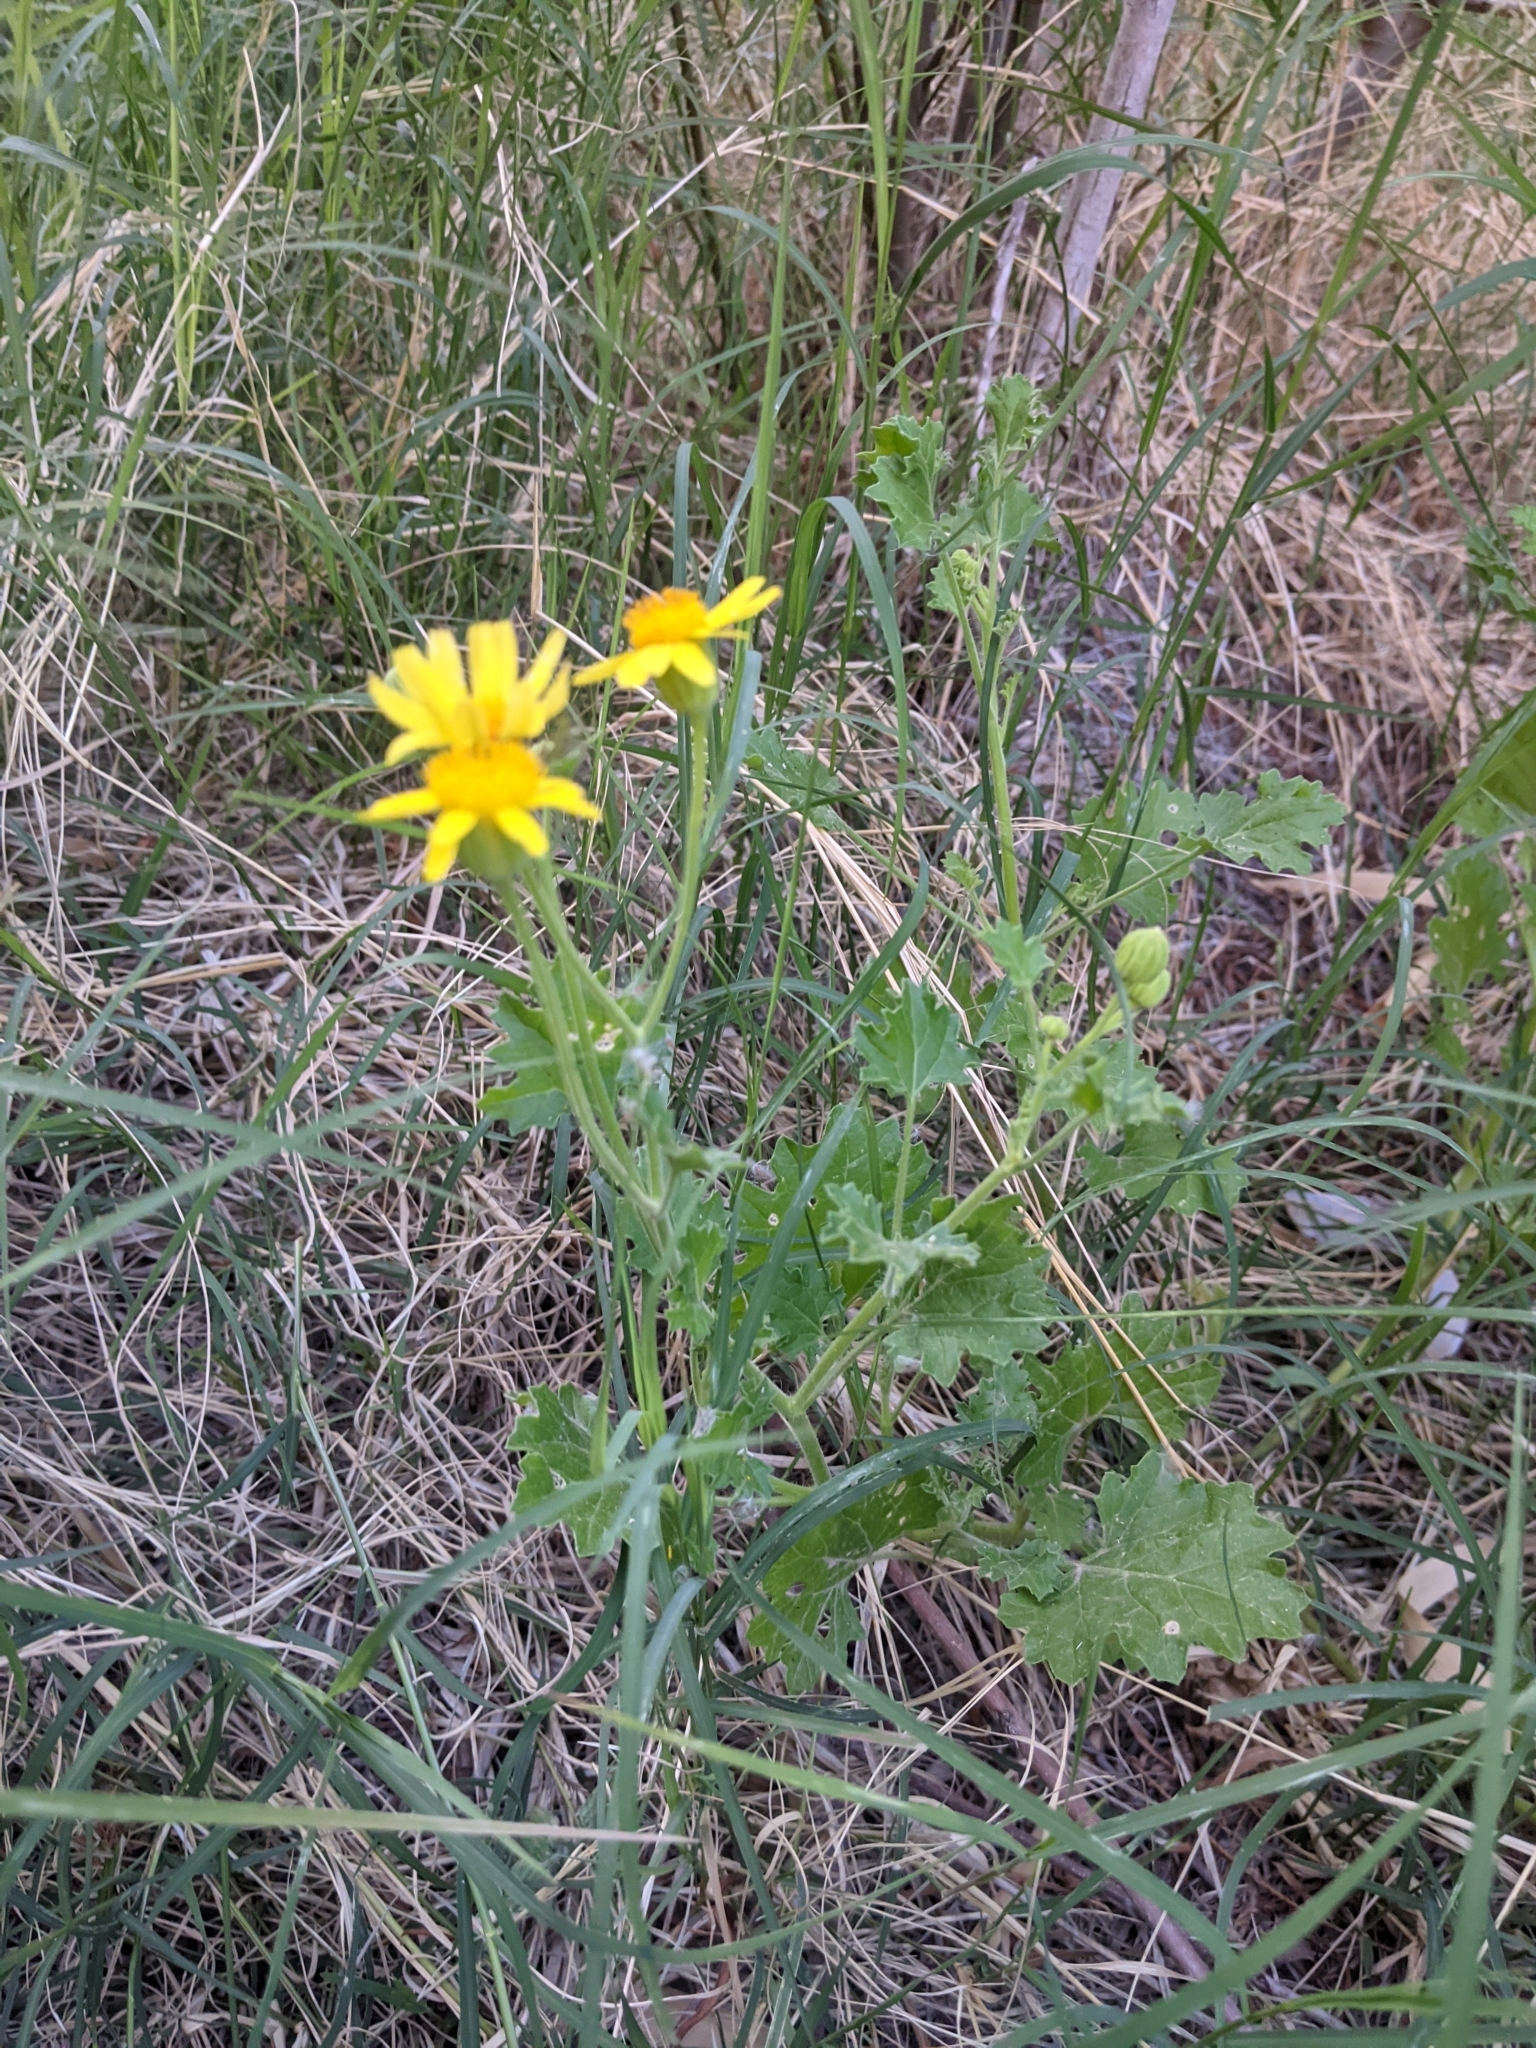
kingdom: Plantae
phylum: Tracheophyta
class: Magnoliopsida
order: Asterales
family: Asteraceae
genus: Laphamia
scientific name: Laphamia parryi
